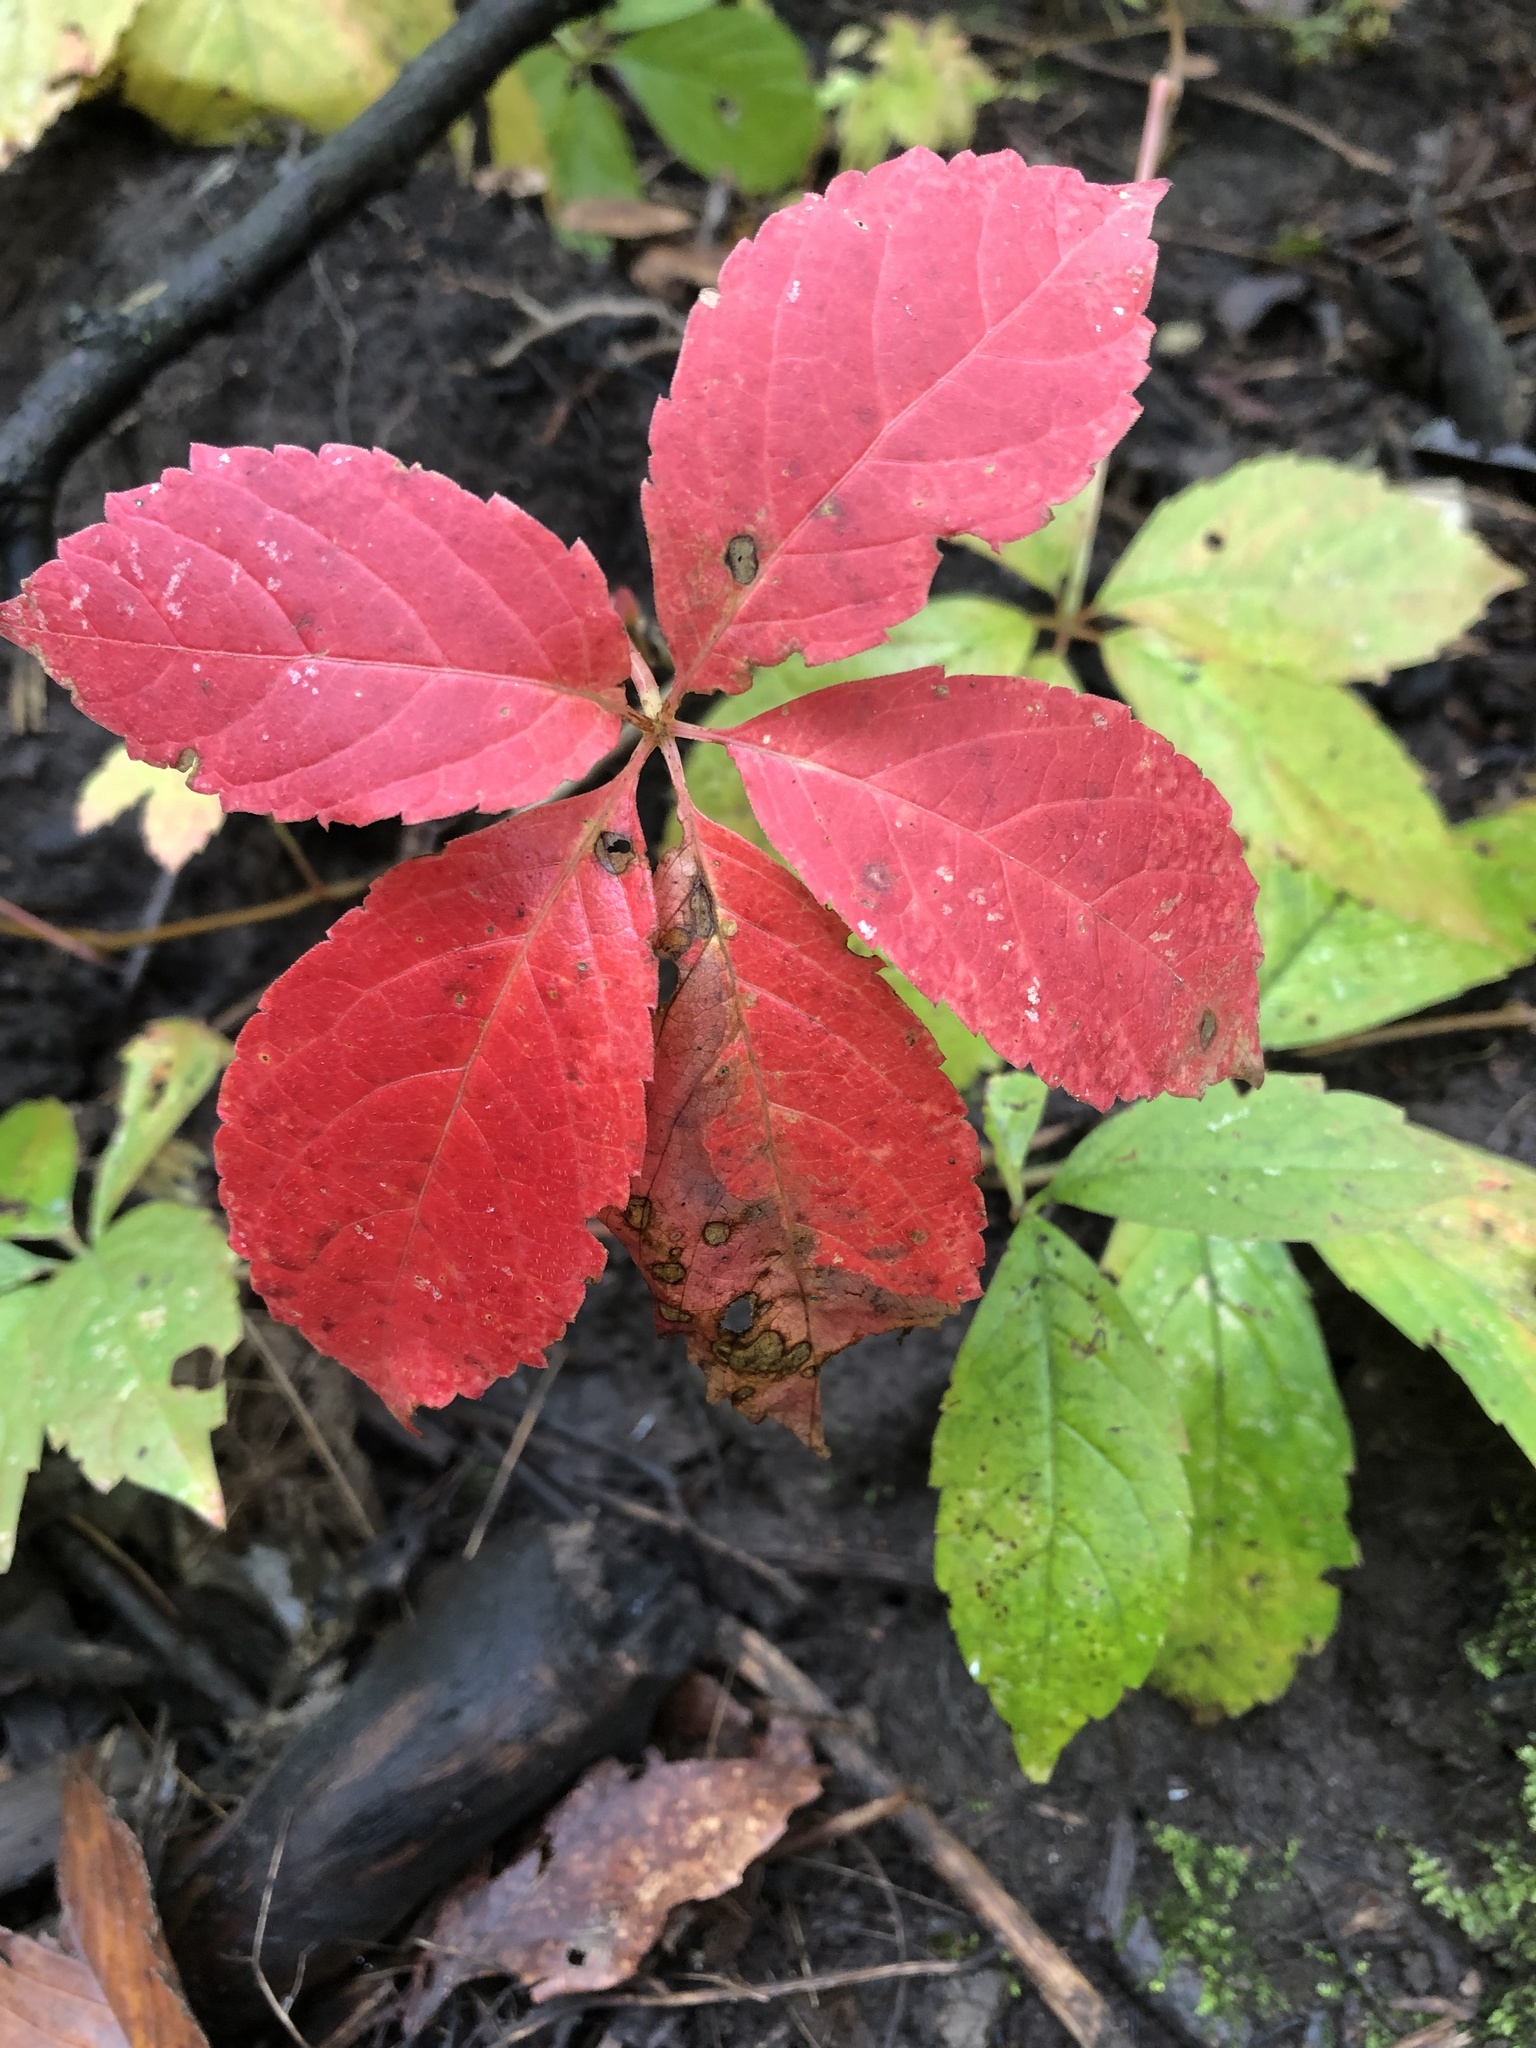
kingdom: Plantae
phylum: Tracheophyta
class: Magnoliopsida
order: Vitales
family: Vitaceae
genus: Parthenocissus
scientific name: Parthenocissus quinquefolia
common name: Virginia-creeper
